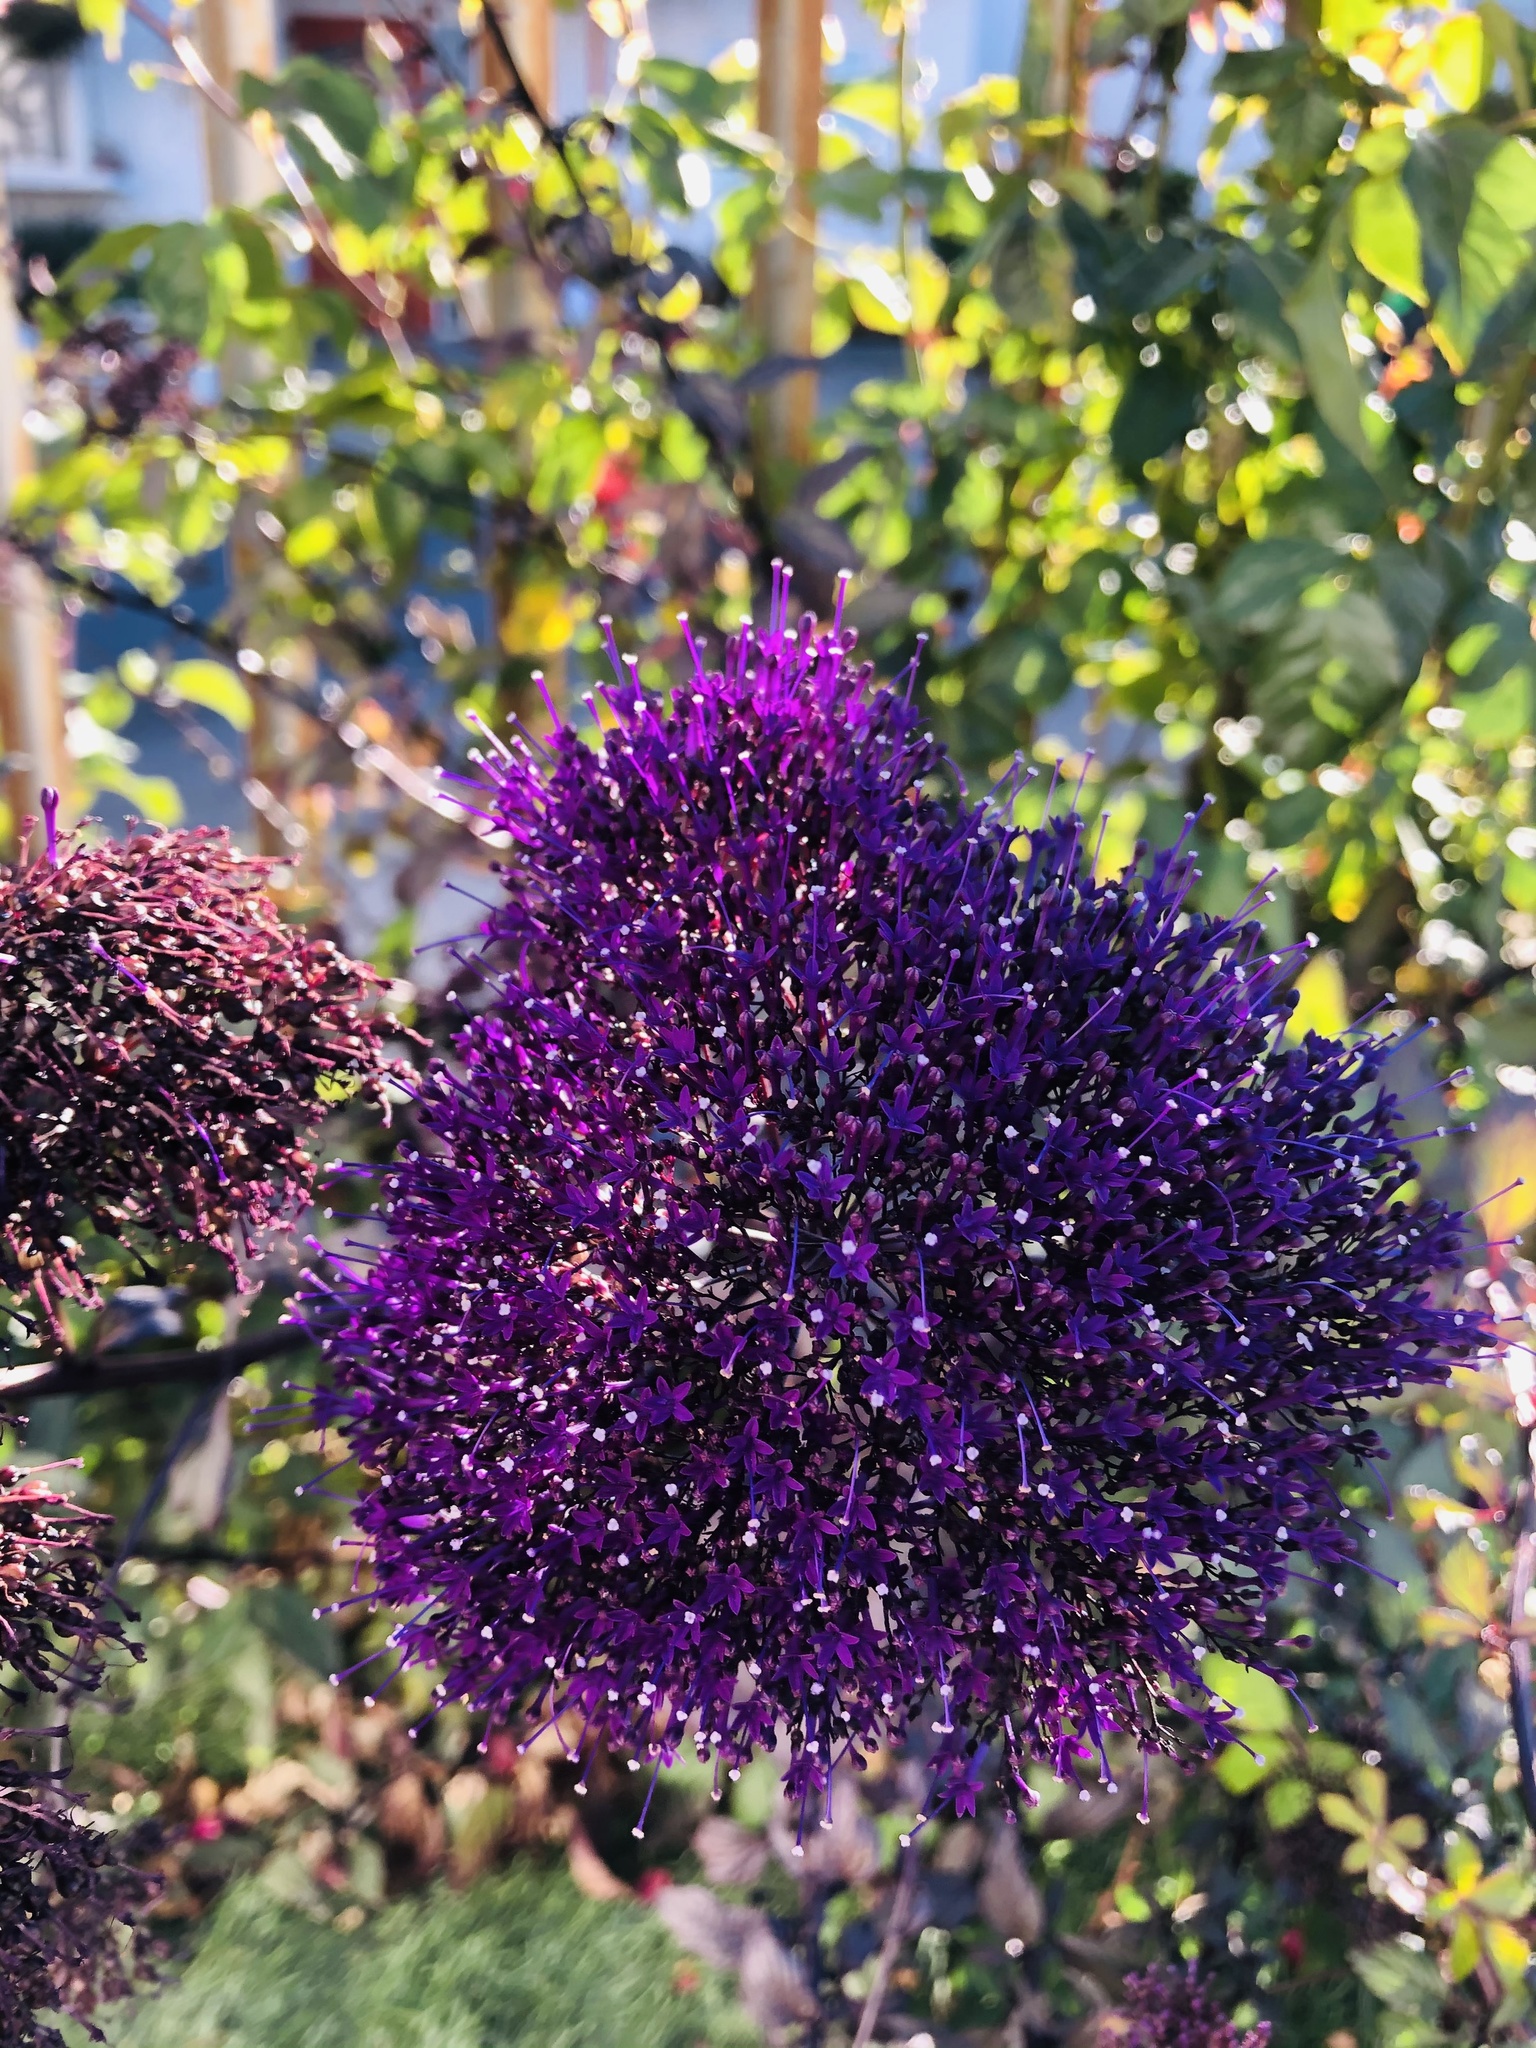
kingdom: Plantae
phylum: Tracheophyta
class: Magnoliopsida
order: Caryophyllales
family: Plumbaginaceae
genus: Limonium
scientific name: Limonium perezii
